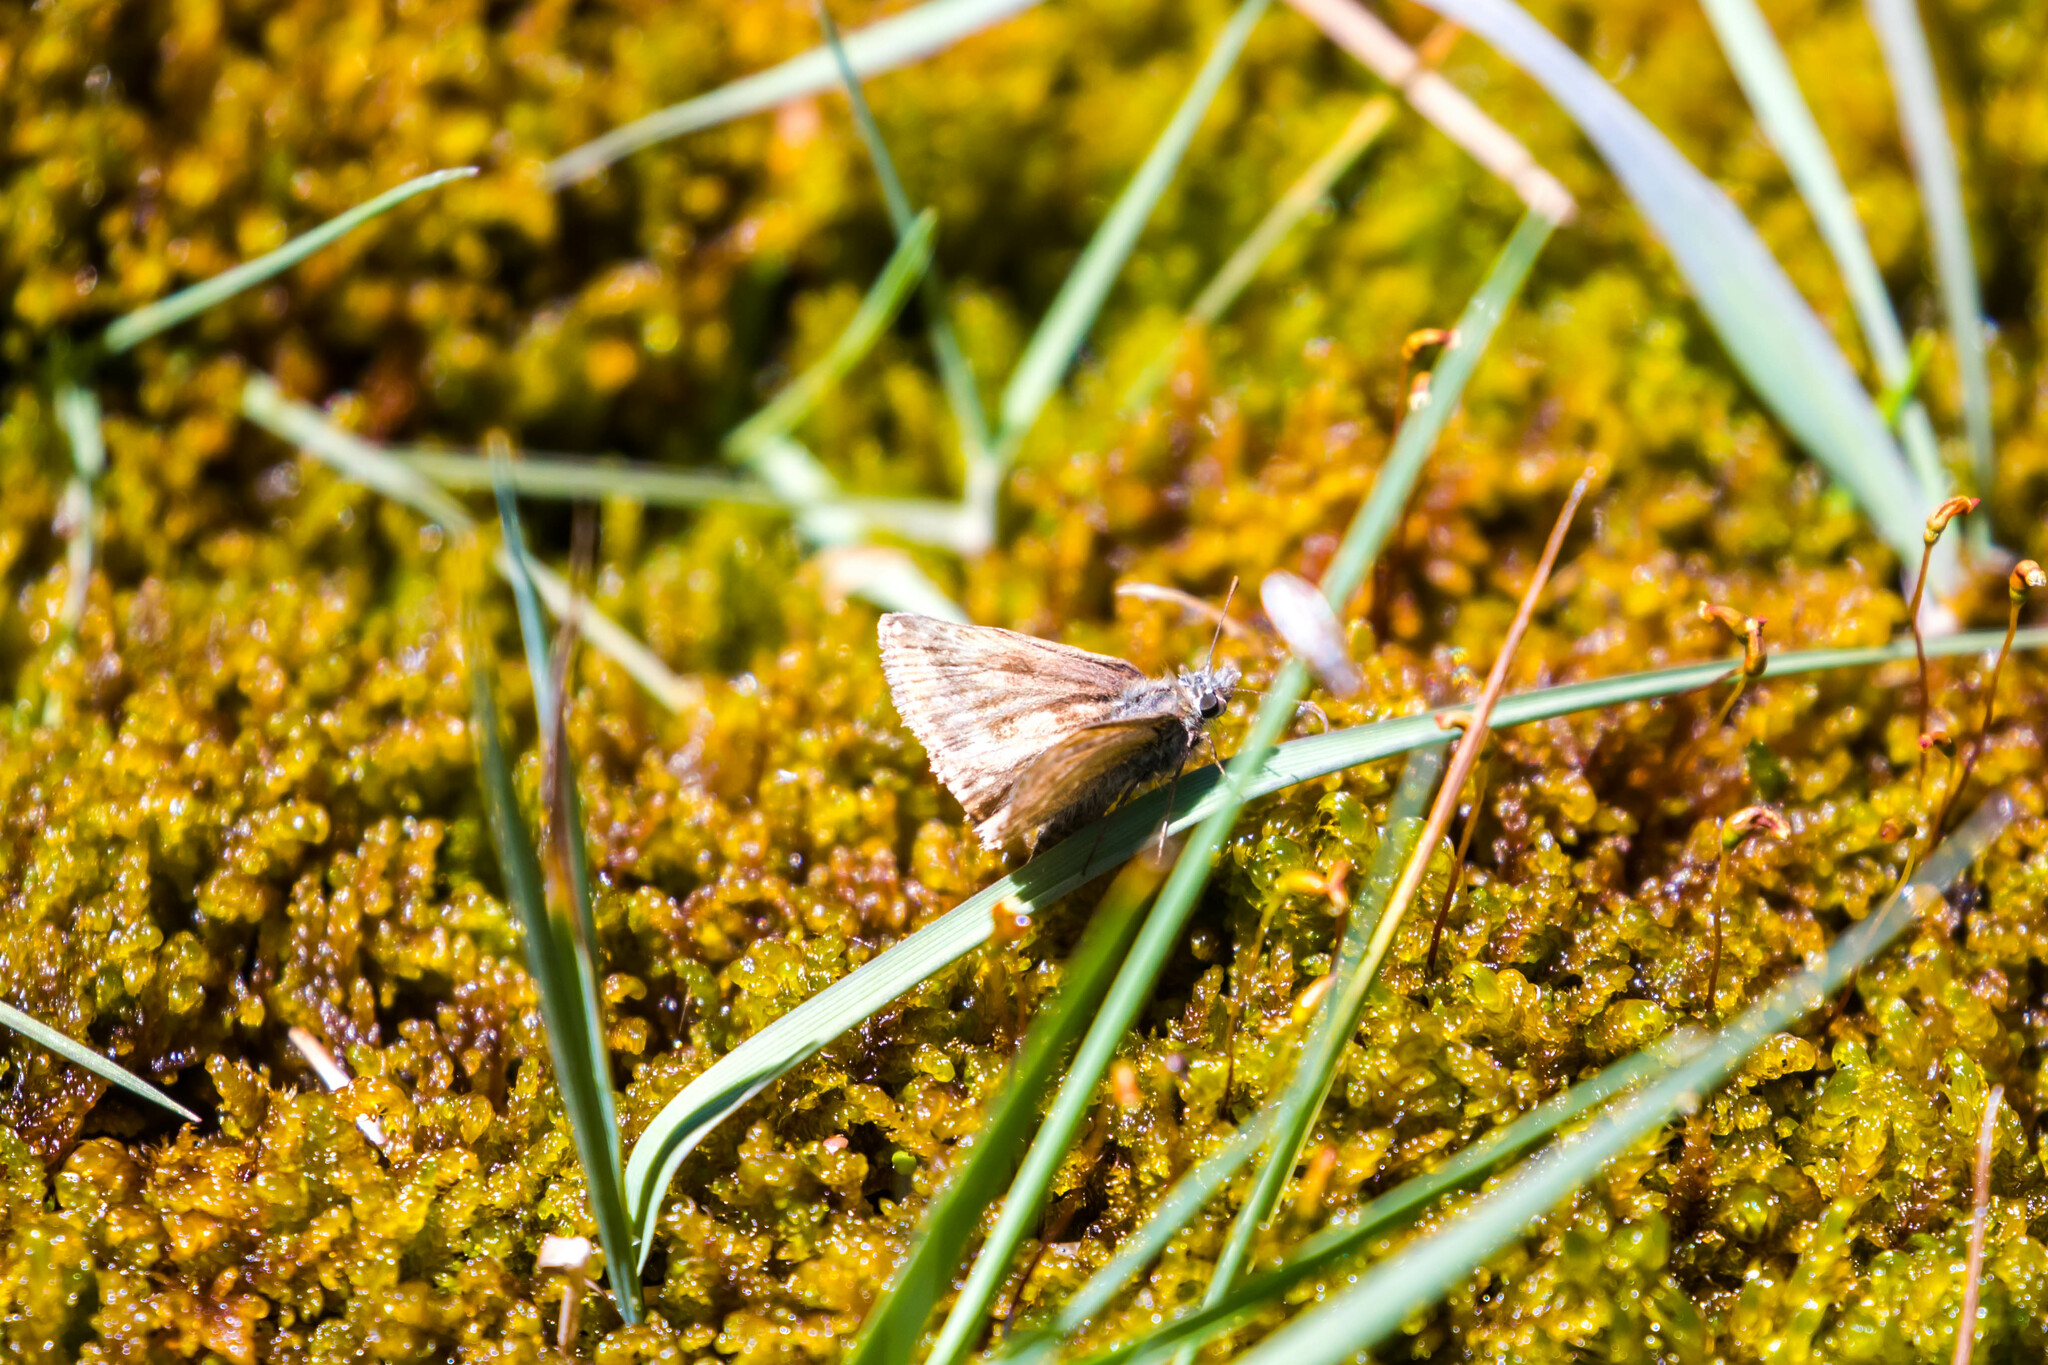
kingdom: Animalia
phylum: Arthropoda
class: Insecta
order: Lepidoptera
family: Hesperiidae
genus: Erynnis
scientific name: Erynnis tages
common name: Dingy skipper
